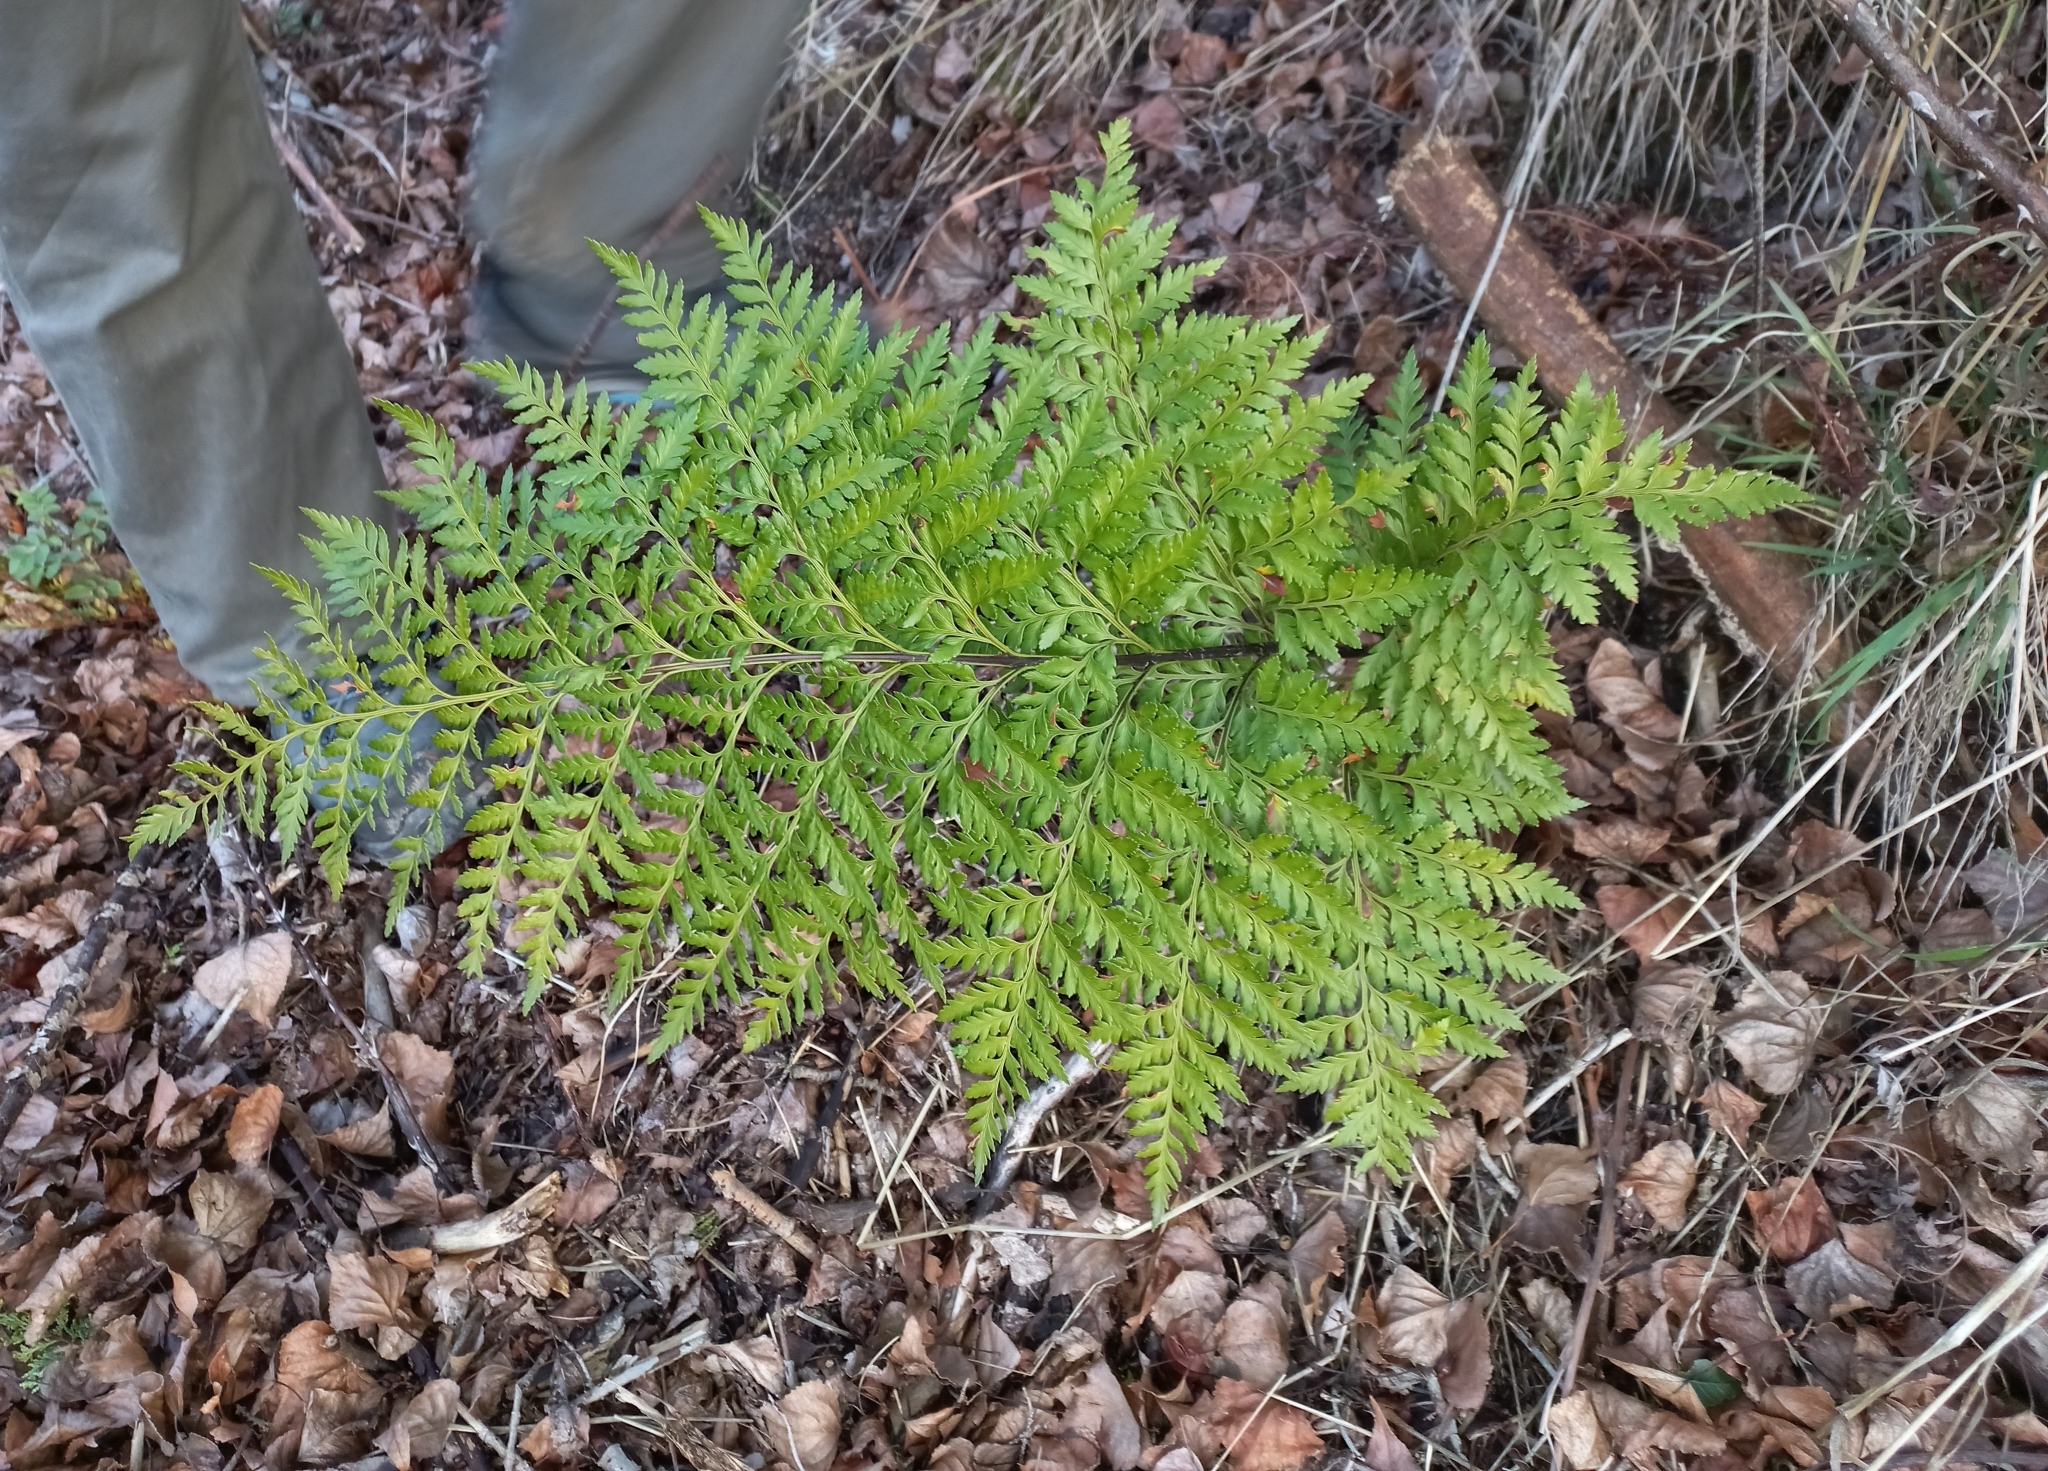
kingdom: Plantae
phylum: Tracheophyta
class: Polypodiopsida
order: Polypodiales
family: Dryopteridaceae
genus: Rumohra
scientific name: Rumohra adiantiformis
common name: Leather fern
